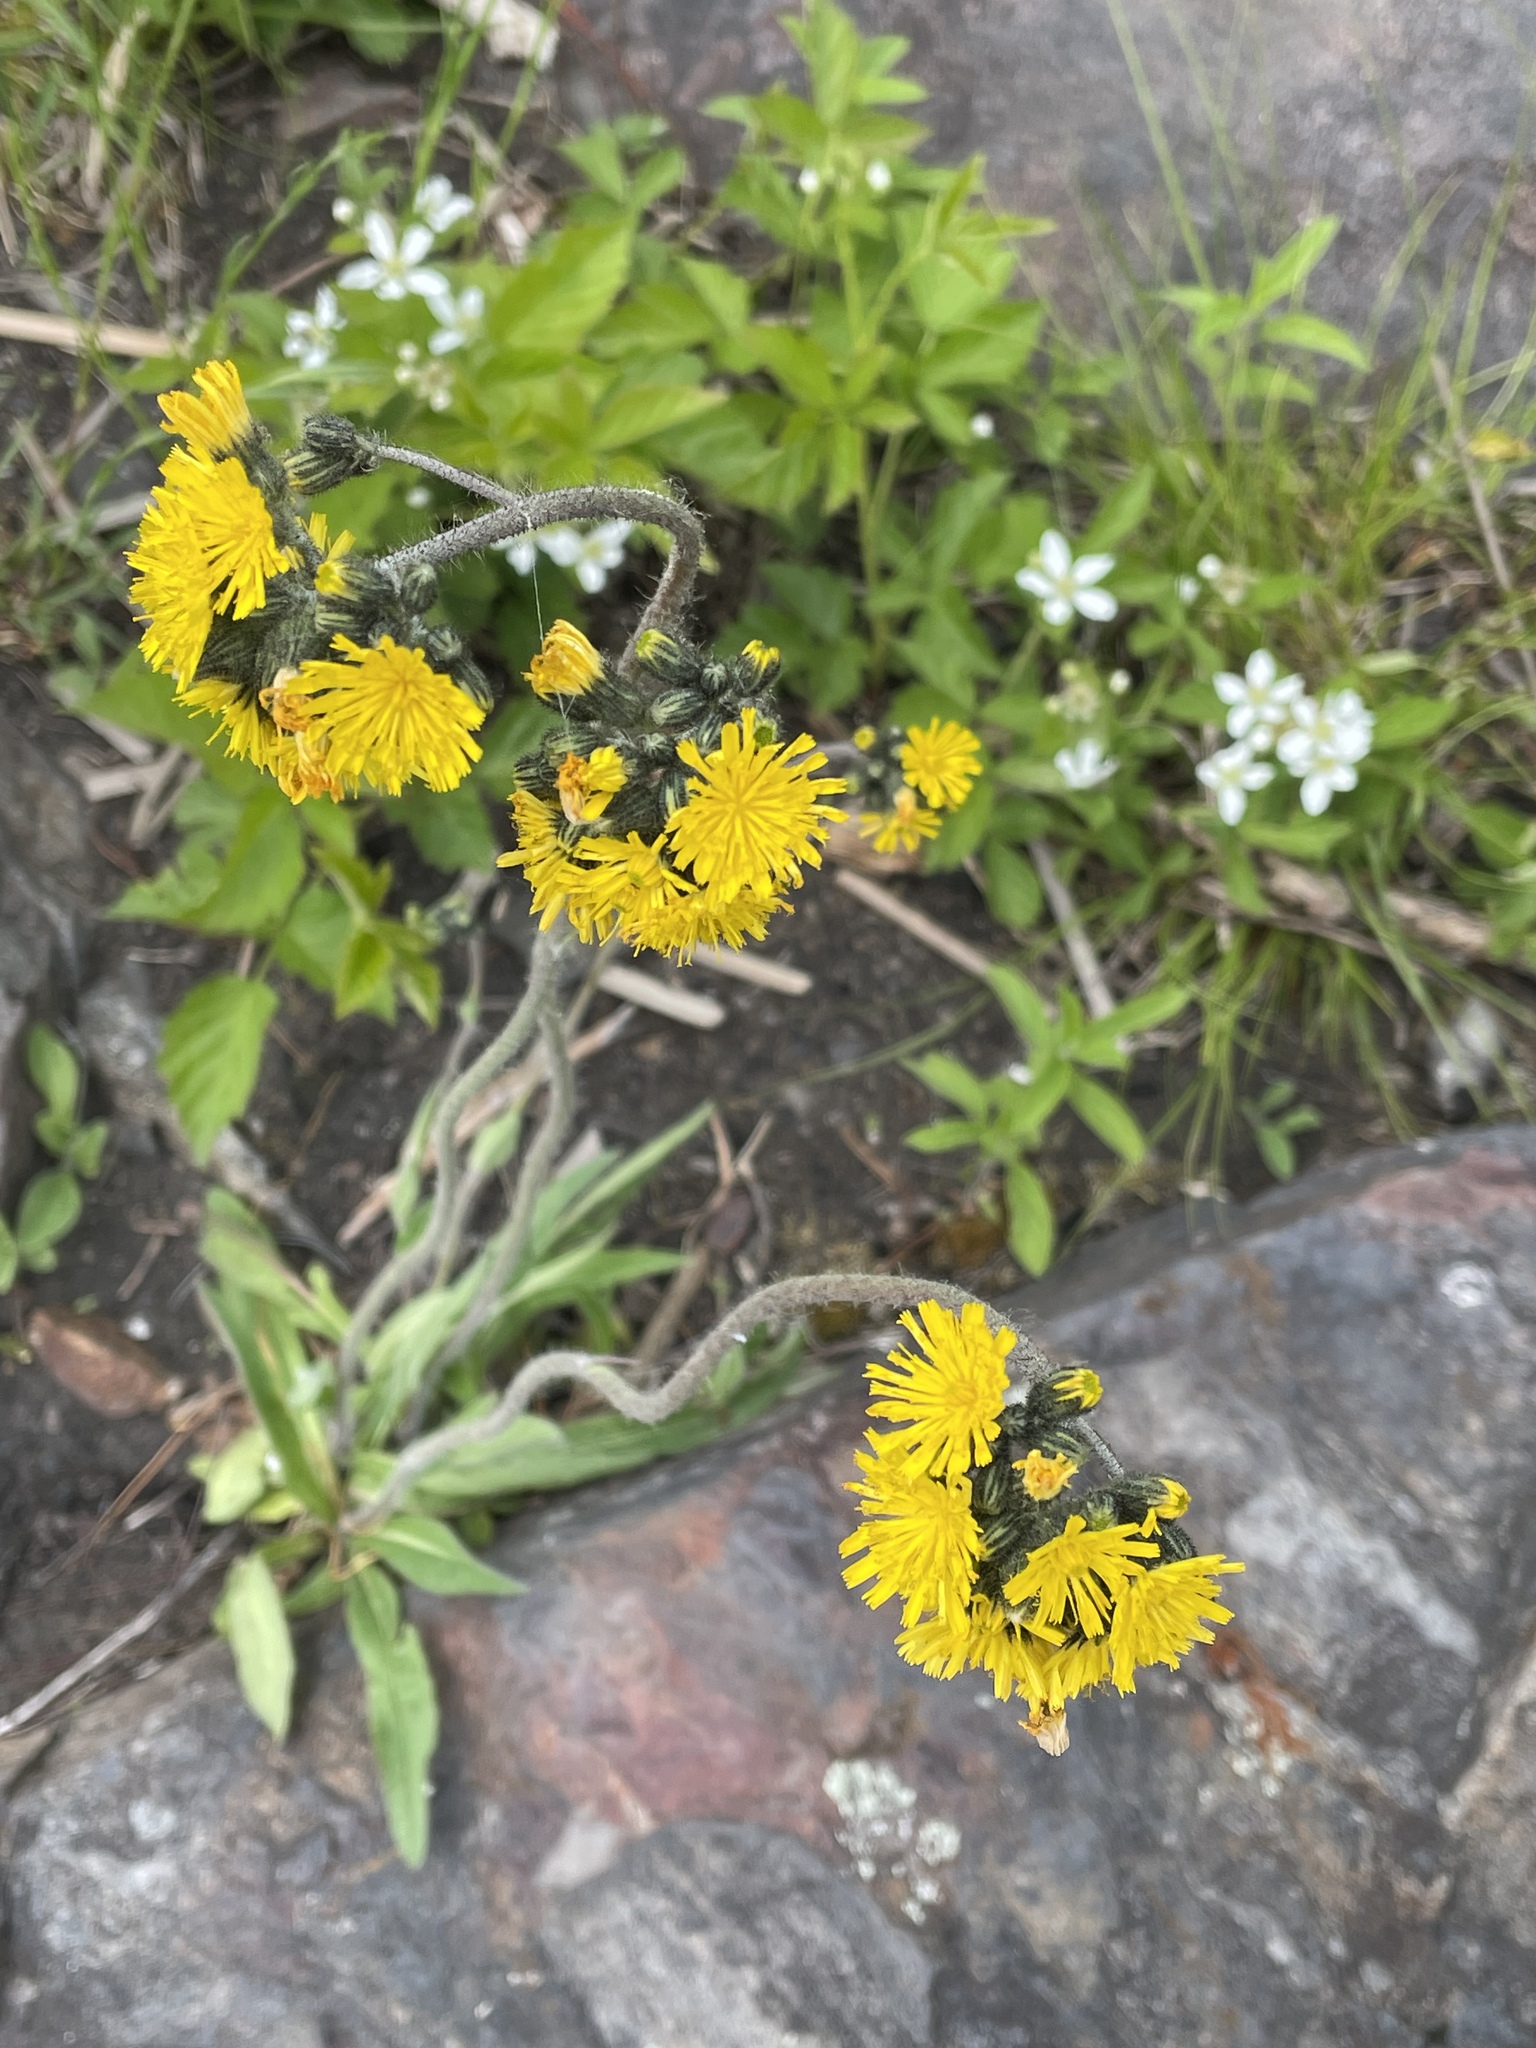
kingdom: Plantae
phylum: Tracheophyta
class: Magnoliopsida
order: Asterales
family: Asteraceae
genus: Pilosella
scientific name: Pilosella caespitosa
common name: Yellow fox-and-cubs
